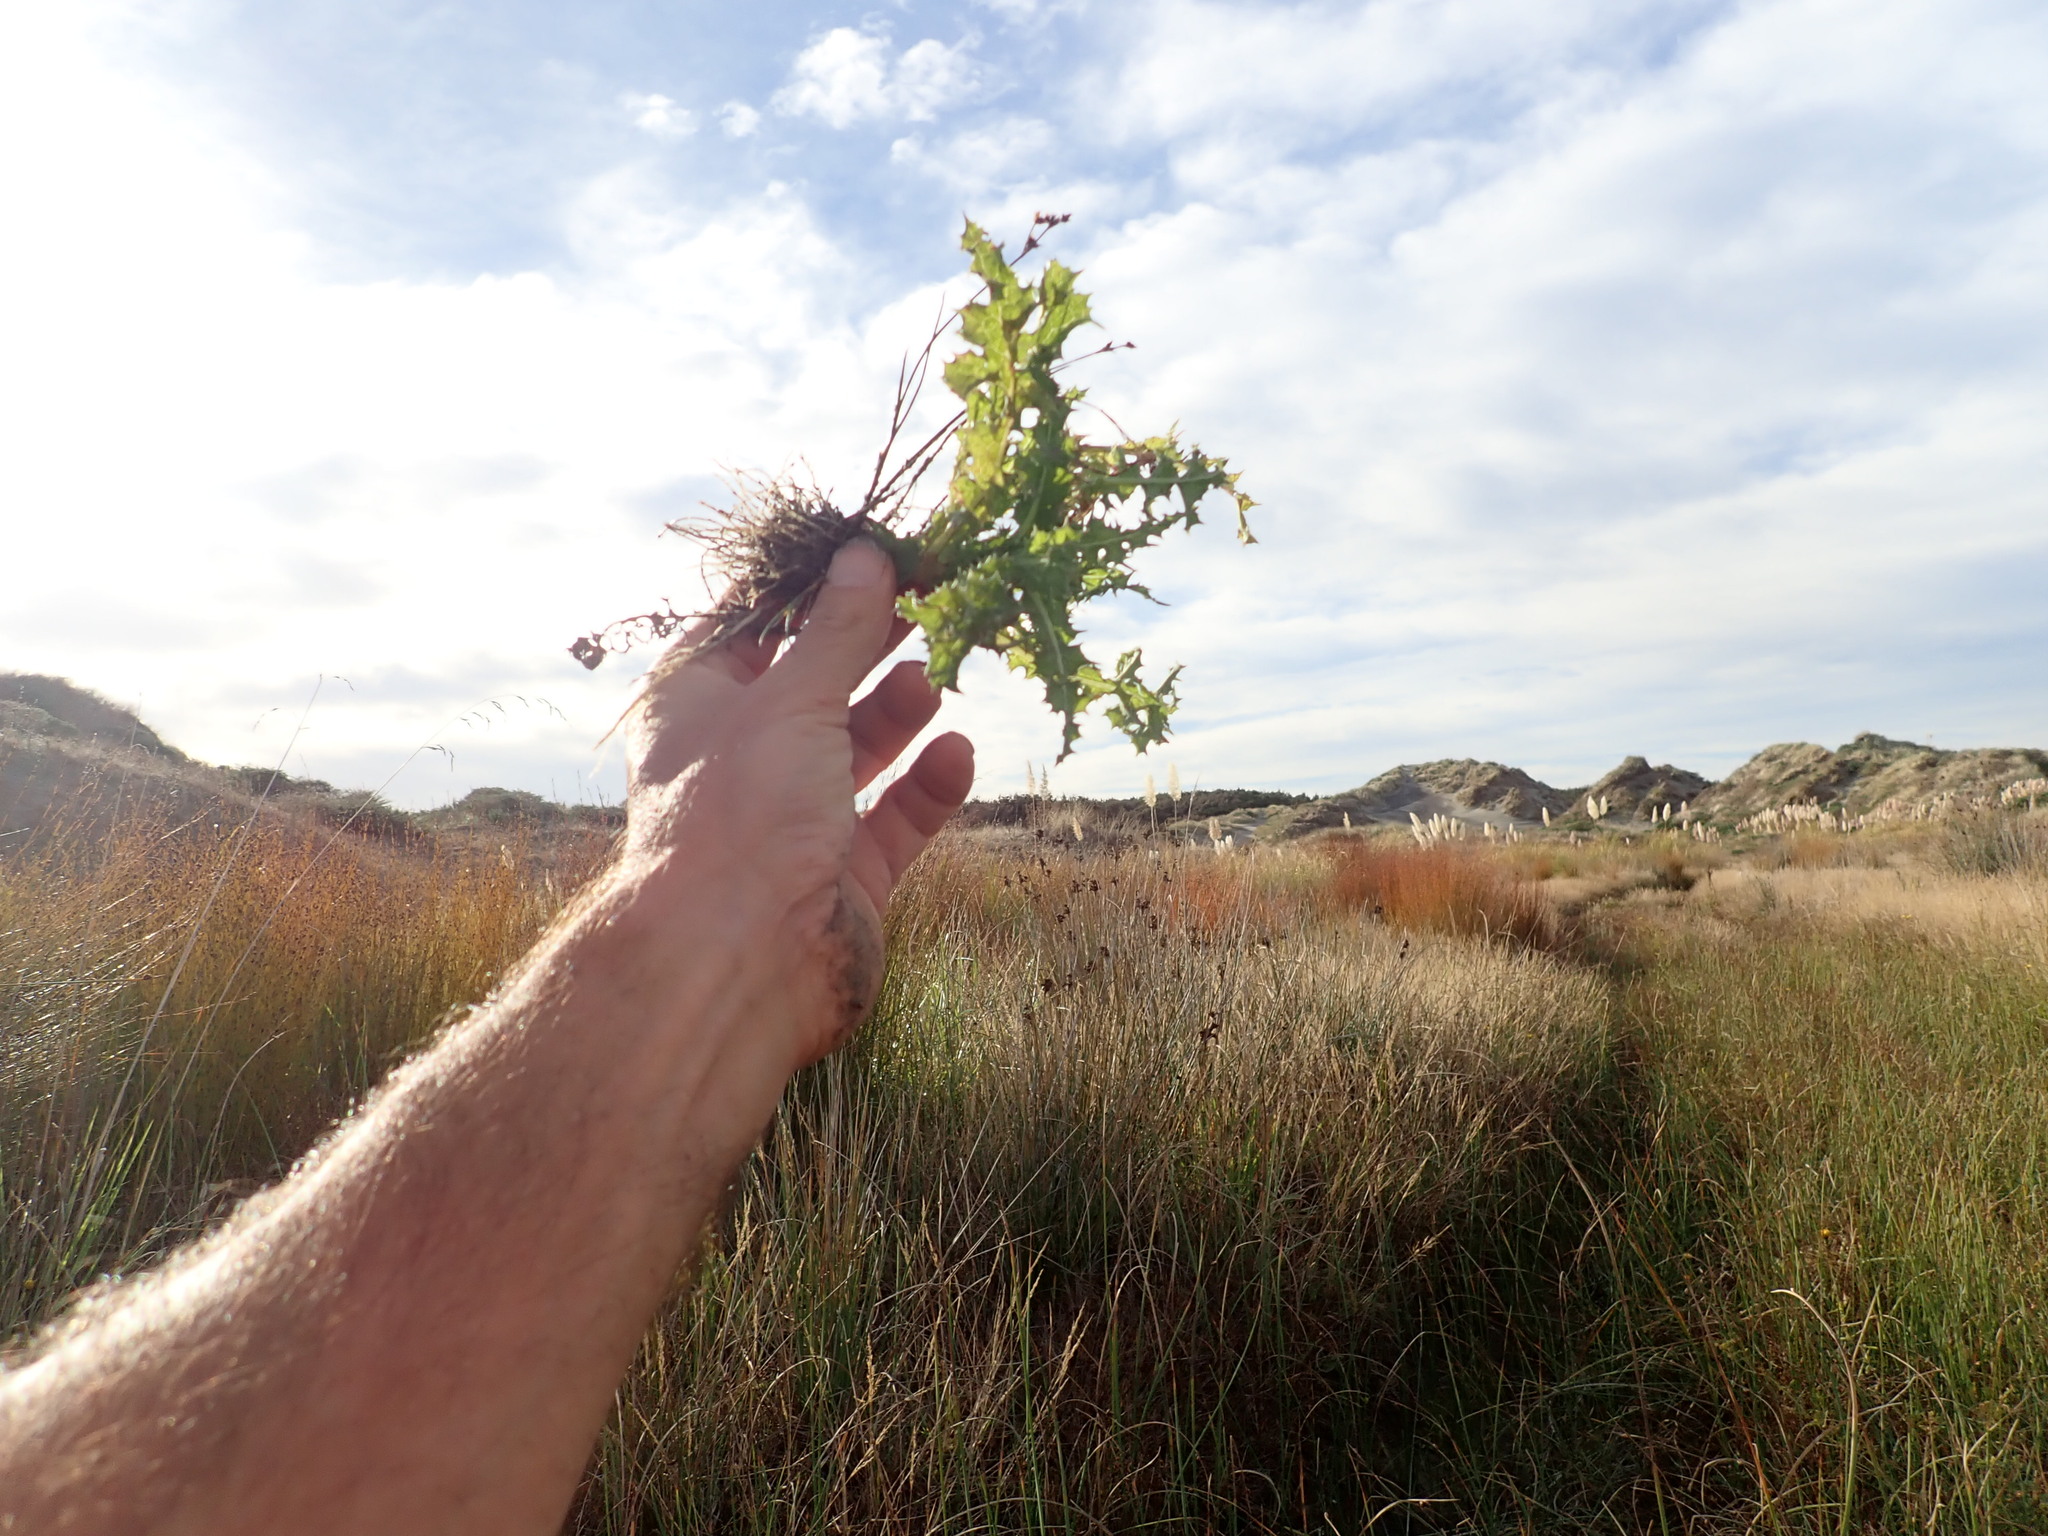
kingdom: Plantae
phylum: Tracheophyta
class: Magnoliopsida
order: Asterales
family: Asteraceae
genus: Cirsium
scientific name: Cirsium arvense
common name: Creeping thistle
